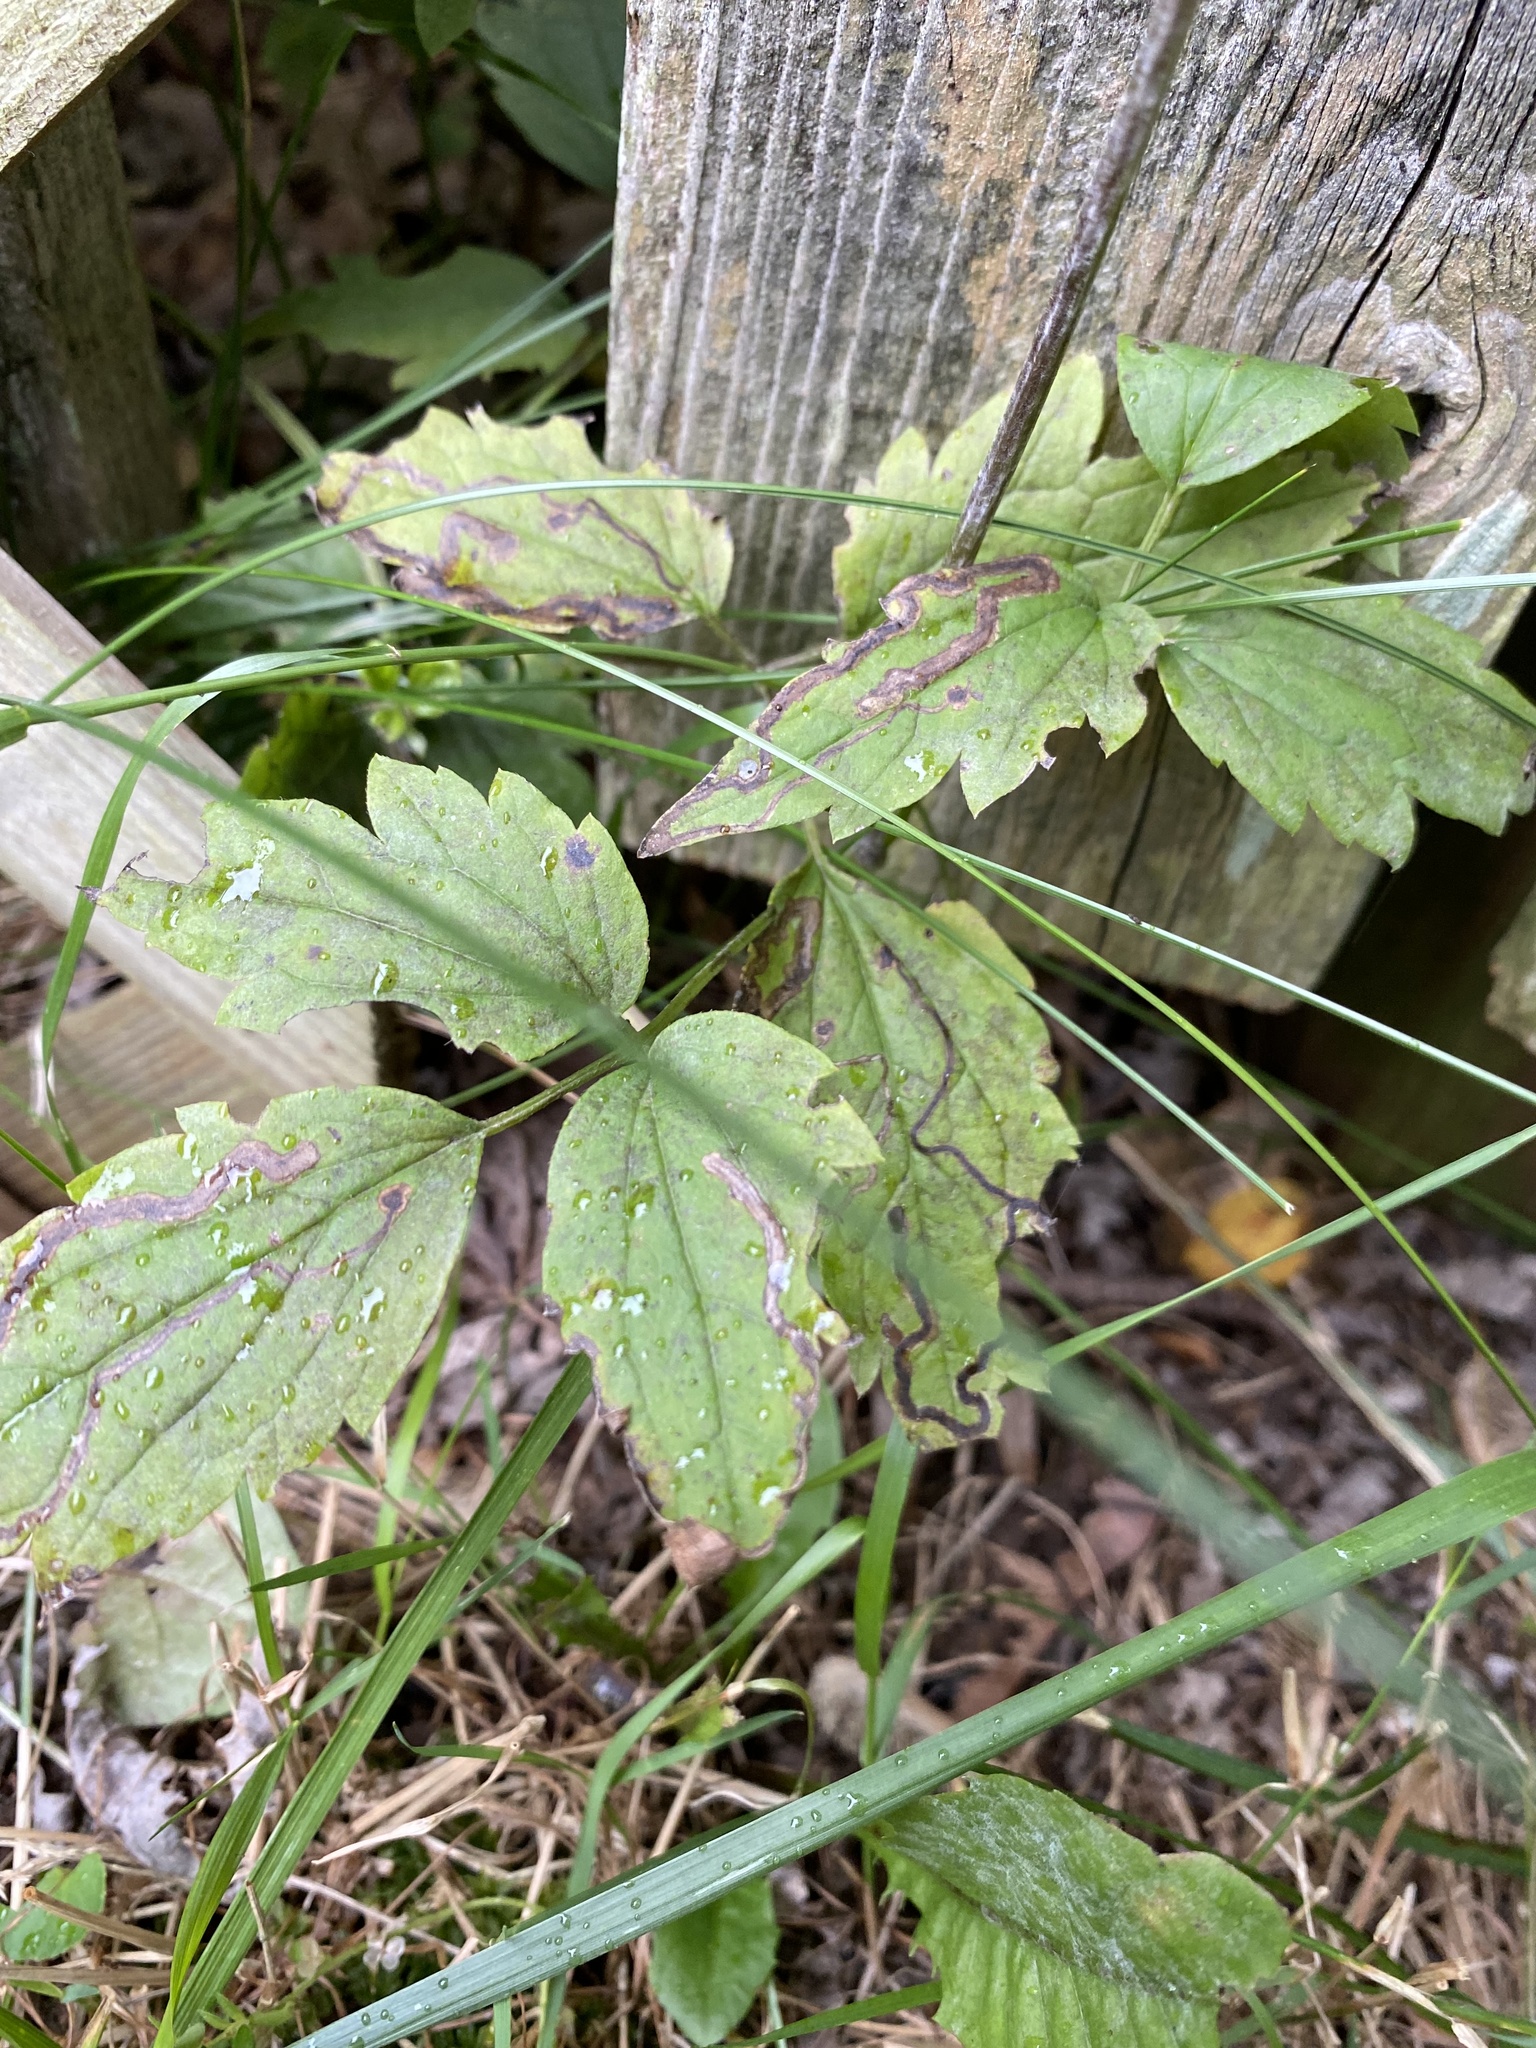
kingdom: Animalia
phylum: Arthropoda
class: Insecta
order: Diptera
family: Agromyzidae
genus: Phytomyza
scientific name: Phytomyza loewii
